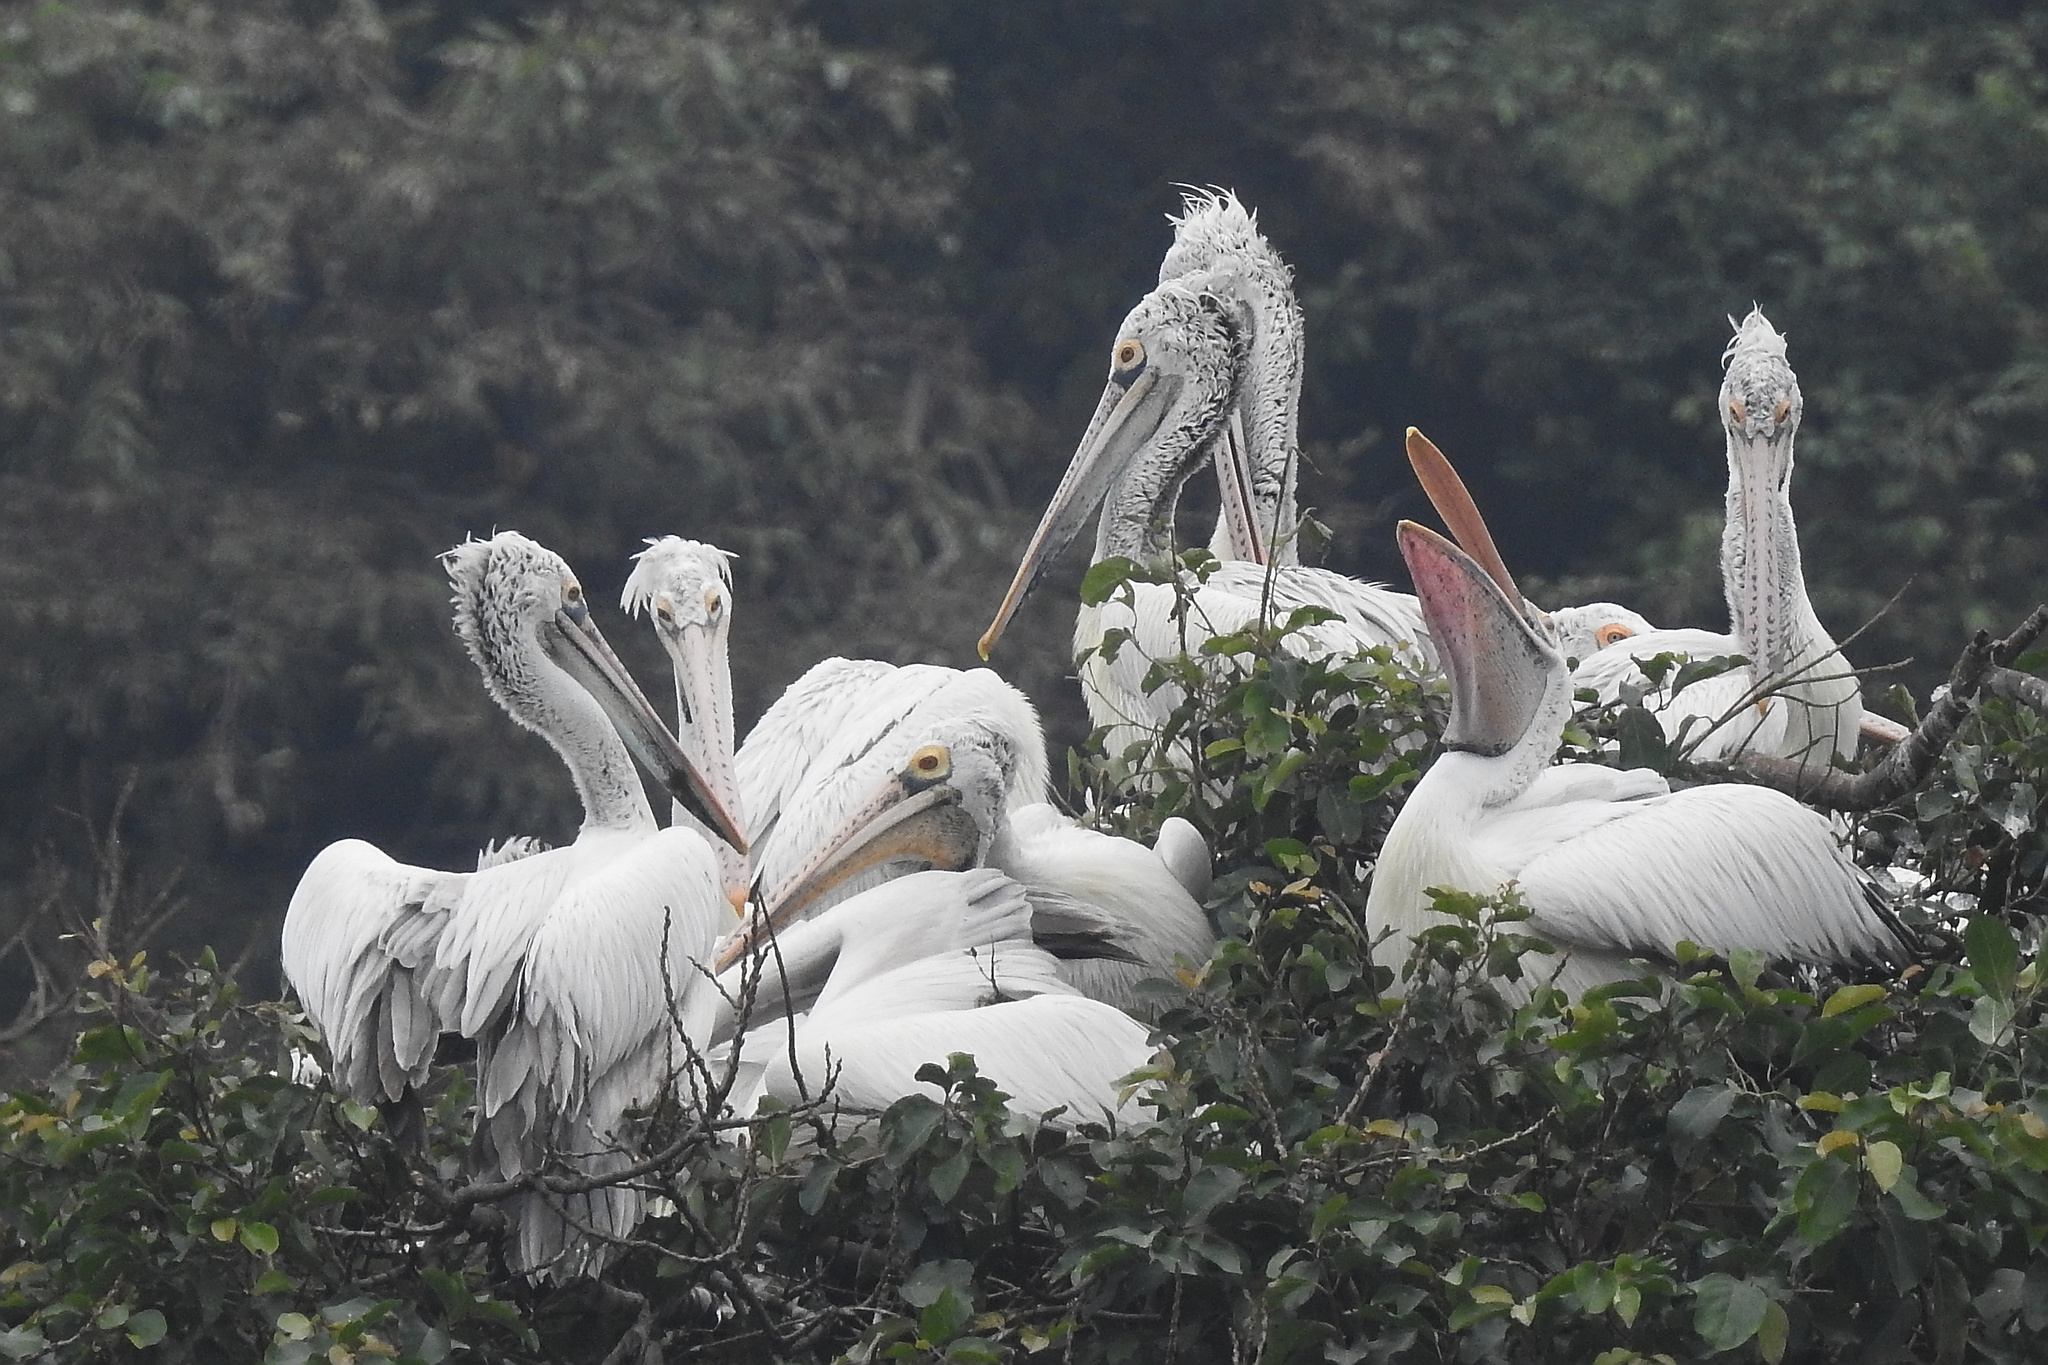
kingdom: Animalia
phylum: Chordata
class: Aves
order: Pelecaniformes
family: Pelecanidae
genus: Pelecanus
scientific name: Pelecanus philippensis
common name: Spot-billed pelican
